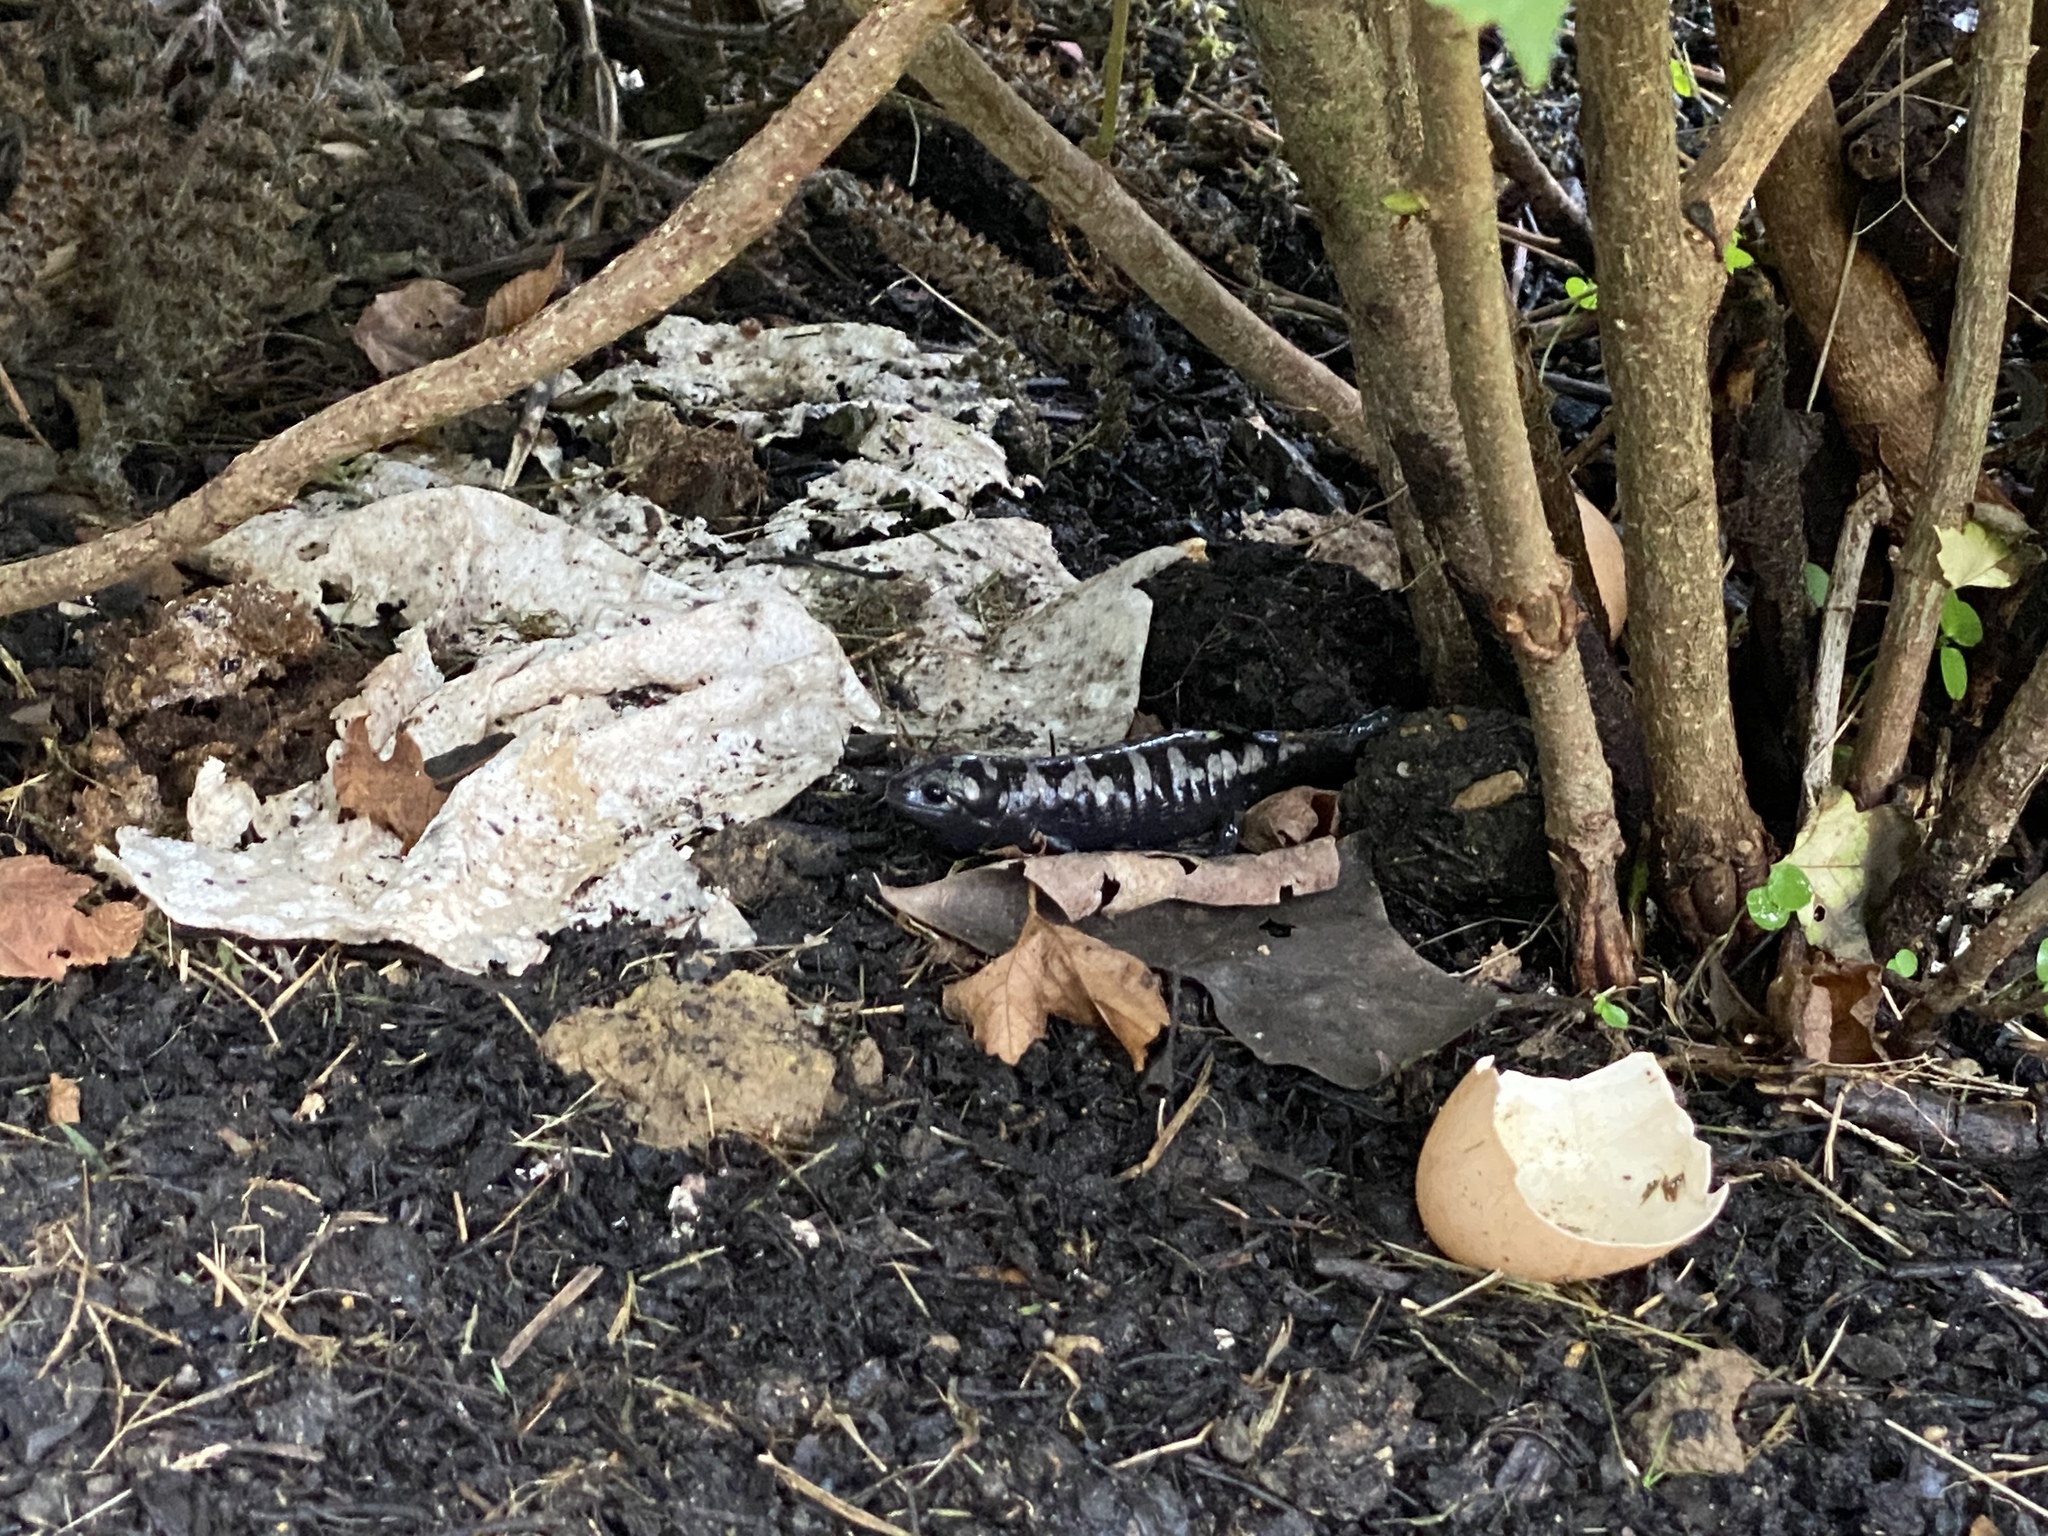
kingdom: Animalia
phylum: Chordata
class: Amphibia
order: Caudata
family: Ambystomatidae
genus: Ambystoma
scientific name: Ambystoma opacum
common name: Marbled salamander
